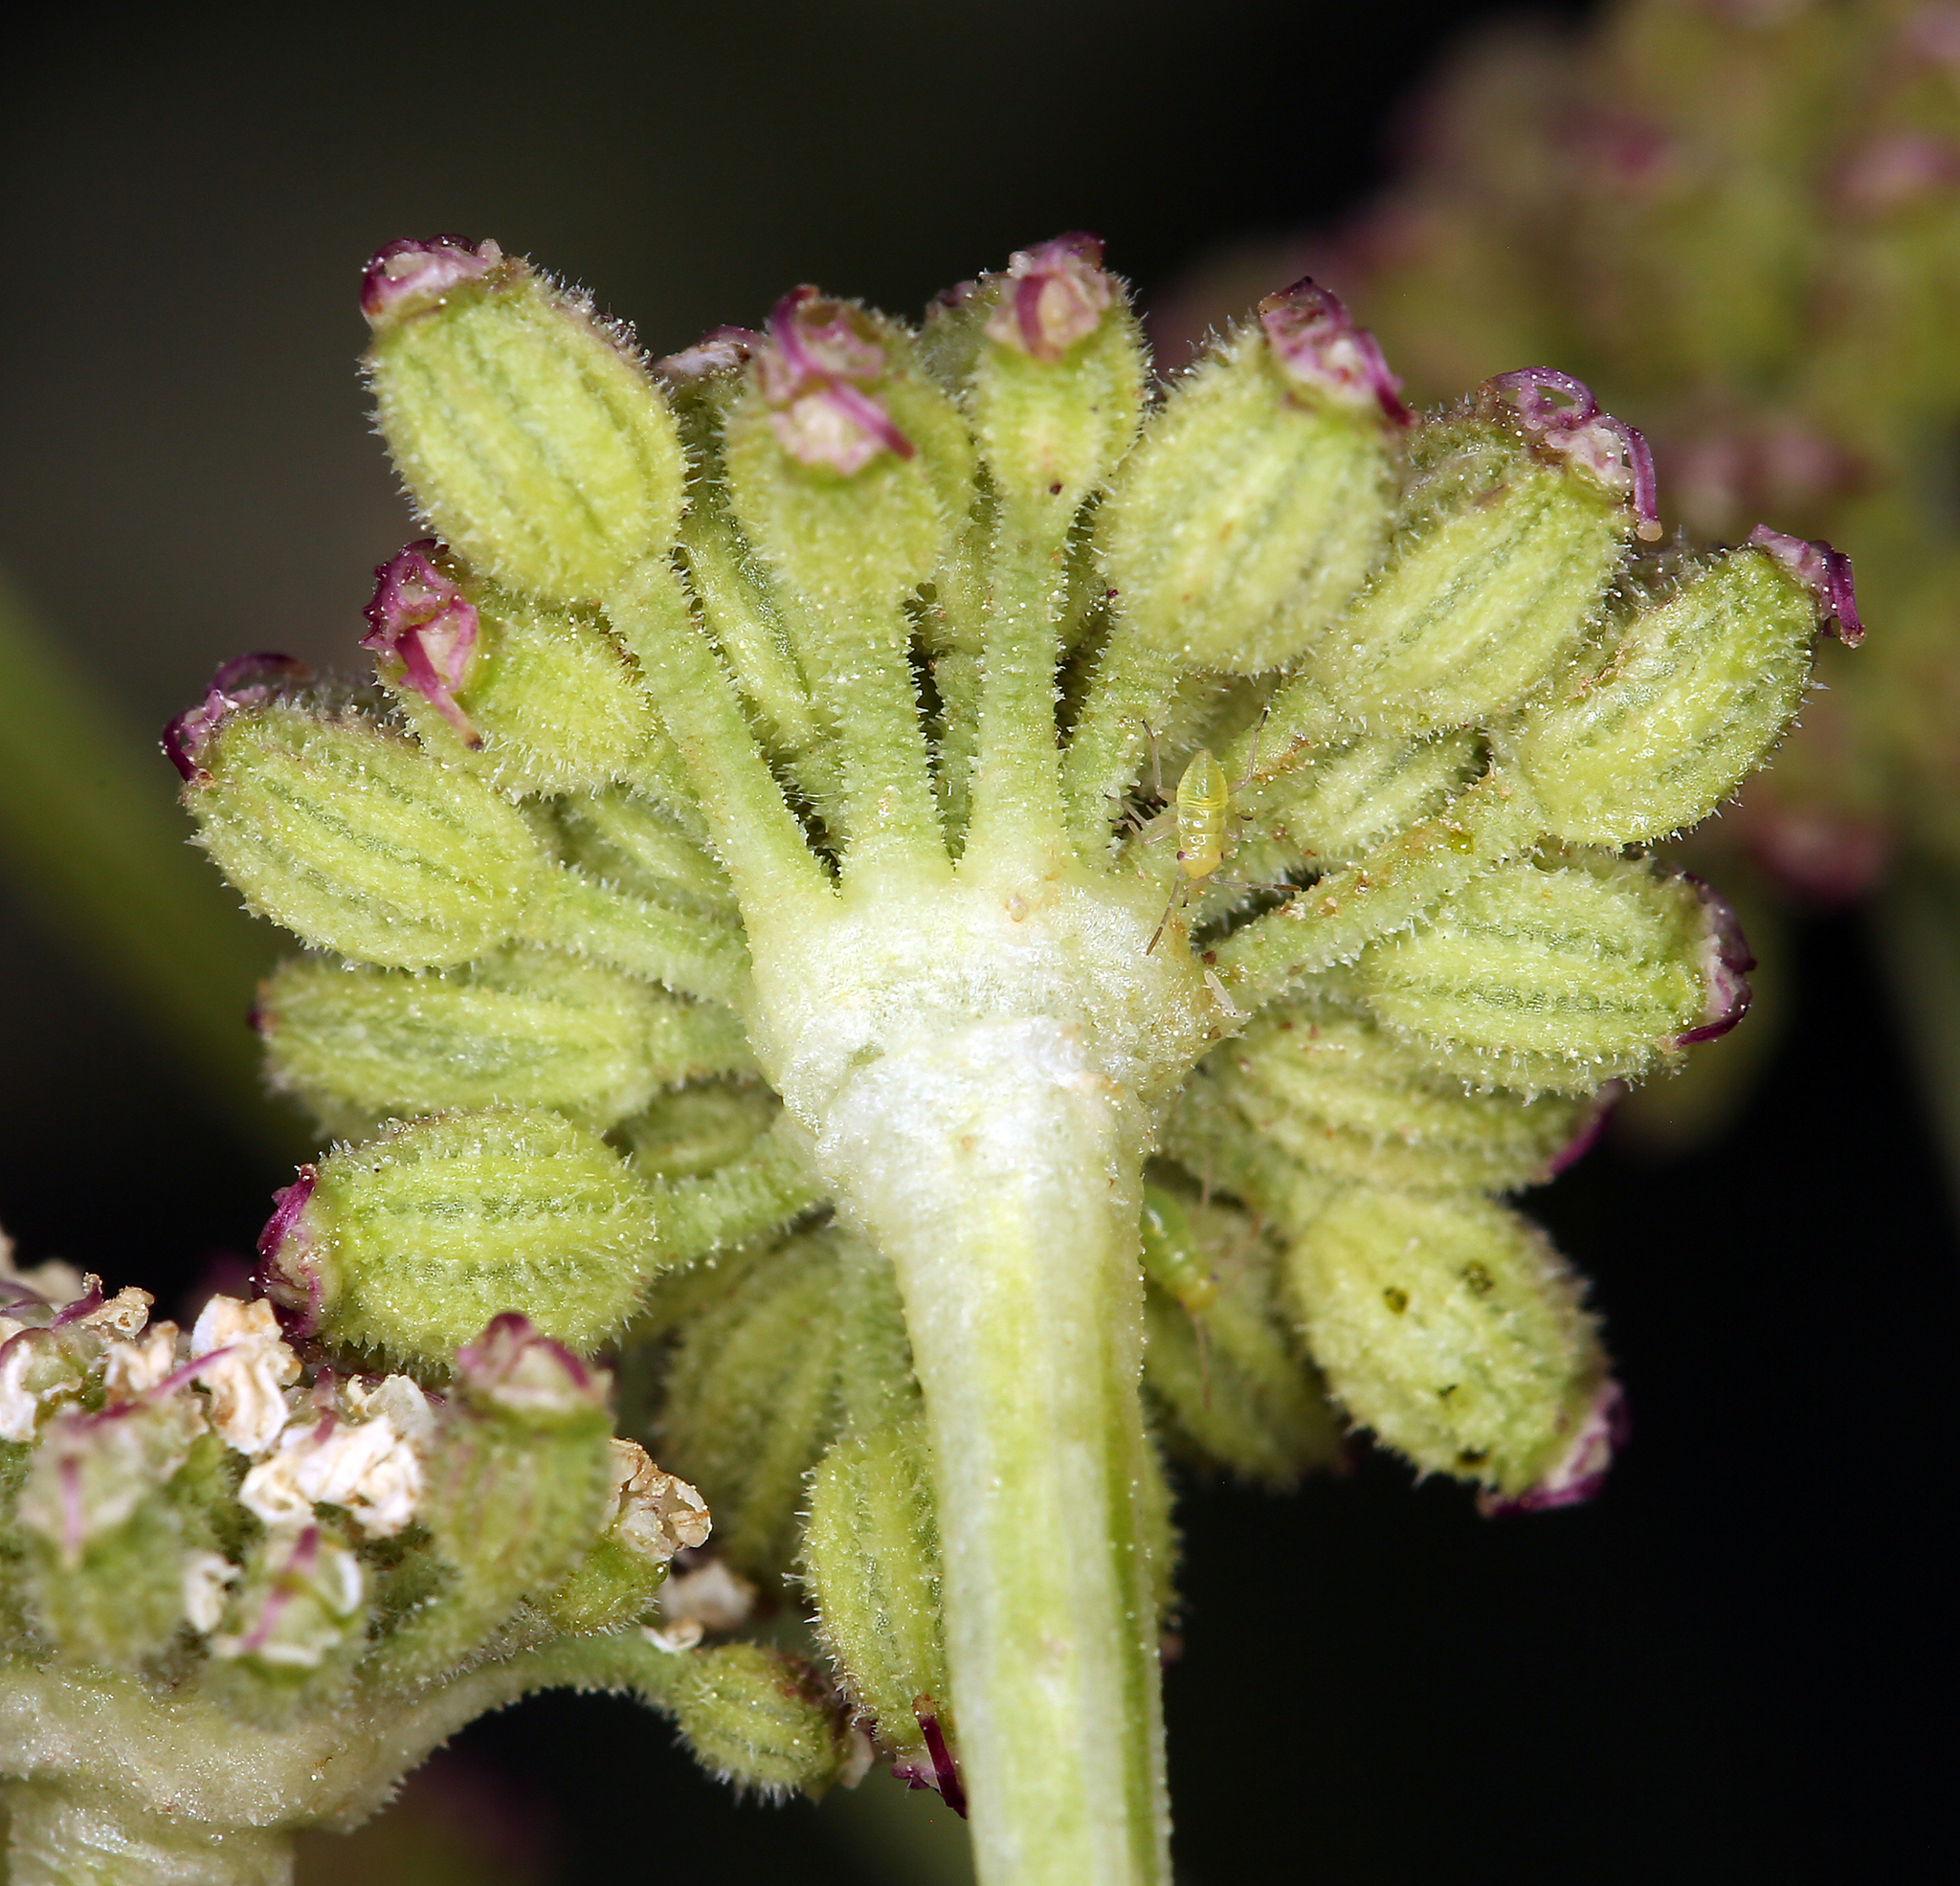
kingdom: Plantae
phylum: Tracheophyta
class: Magnoliopsida
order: Apiales
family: Apiaceae
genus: Angelica
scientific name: Angelica kingii
